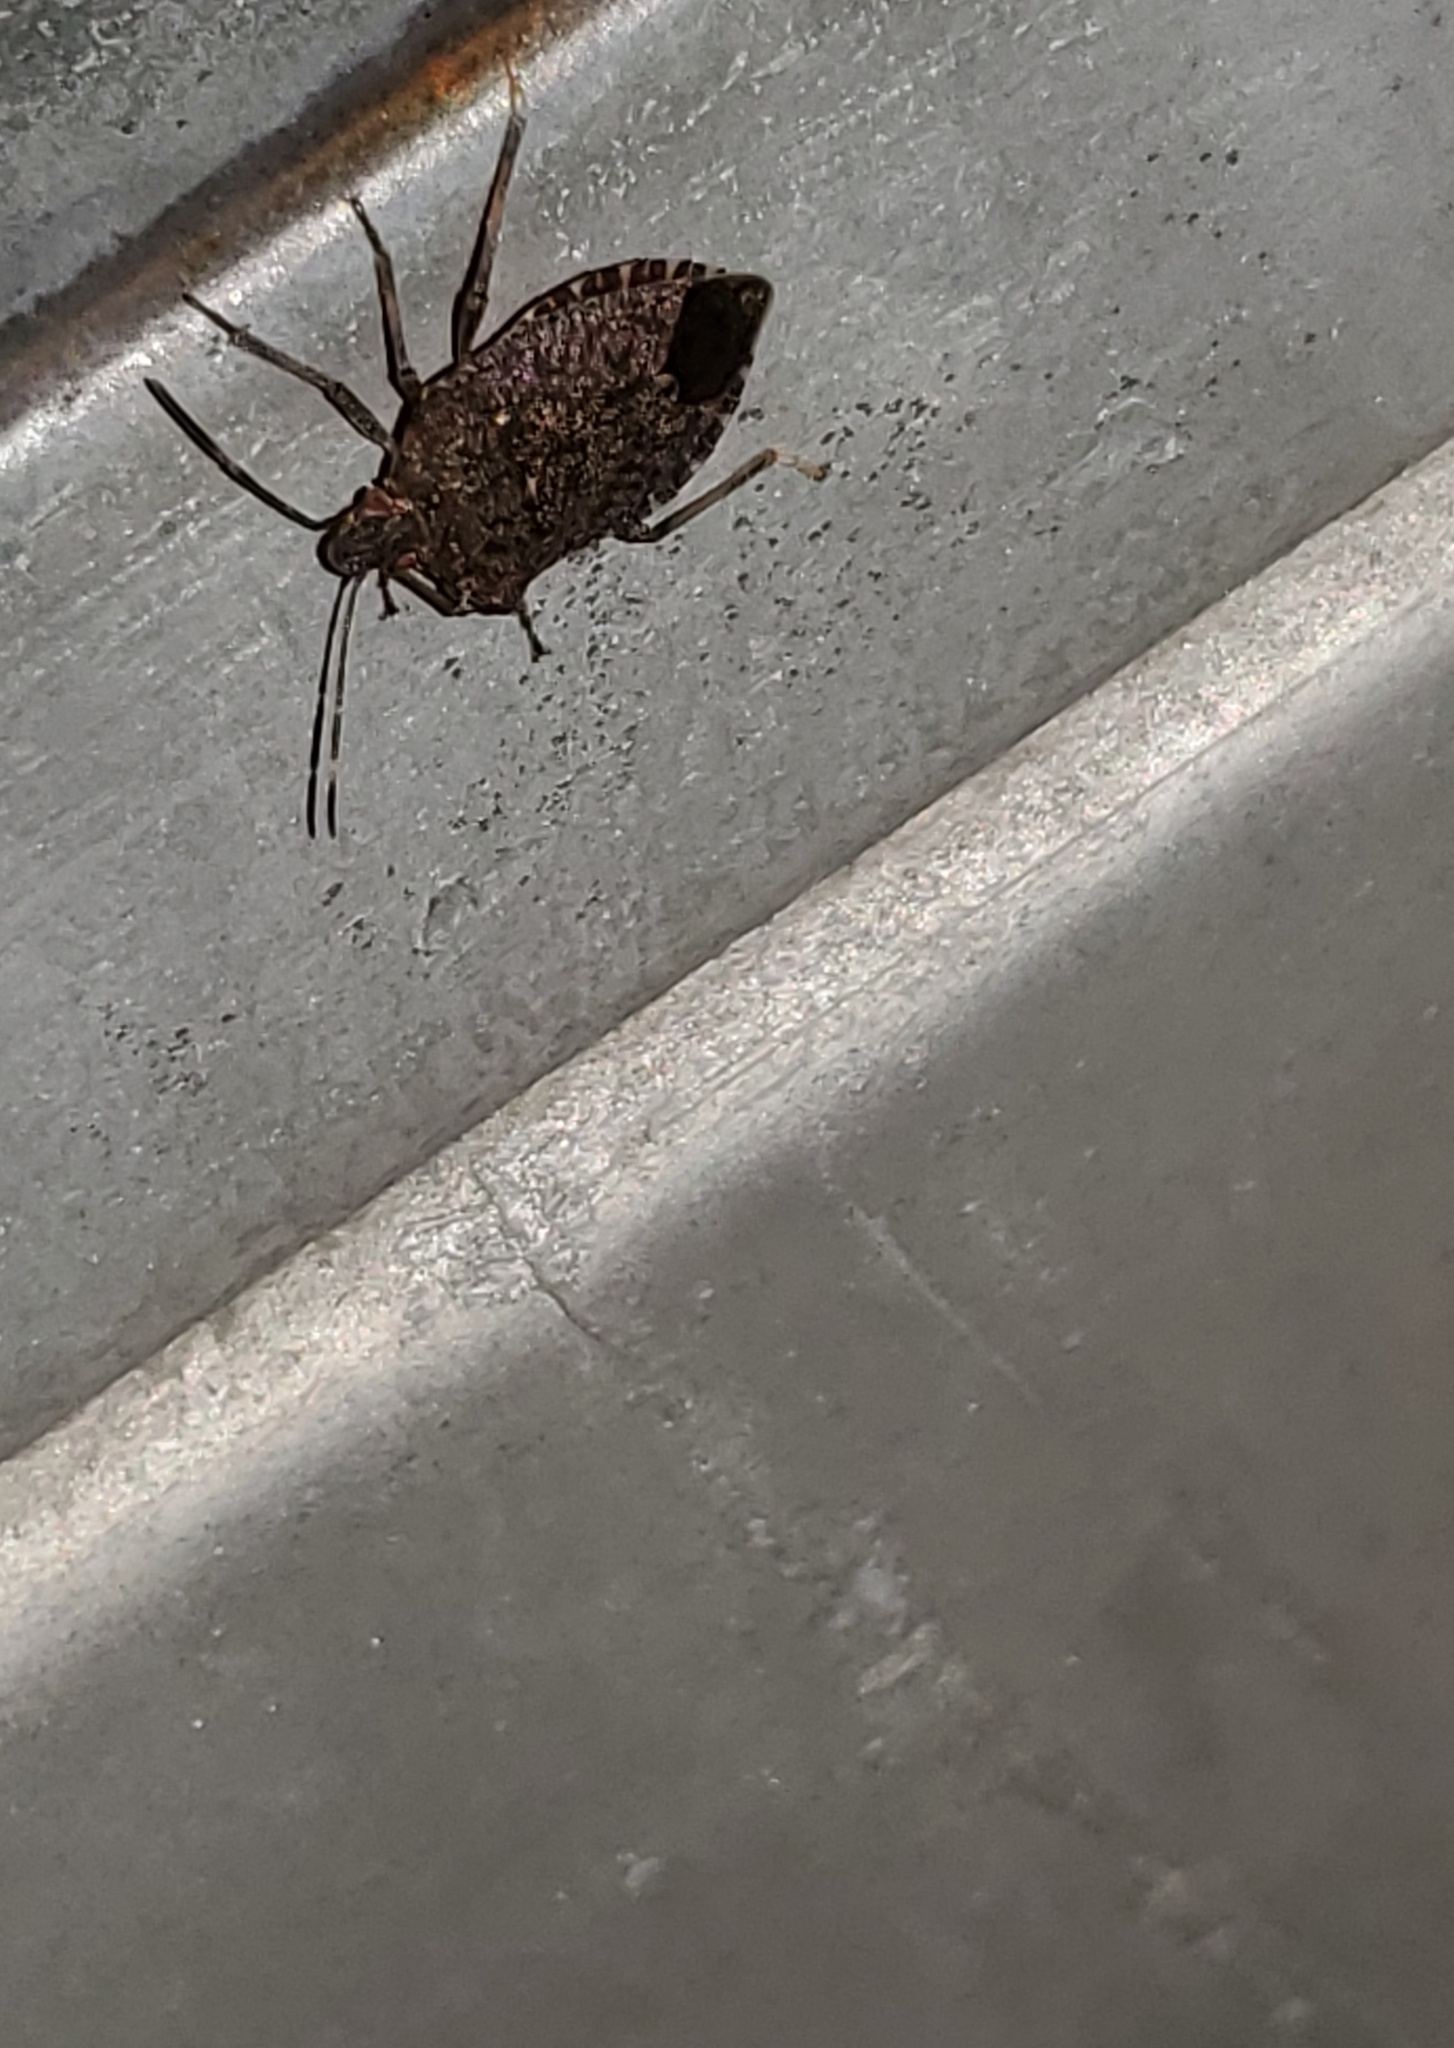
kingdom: Animalia
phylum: Arthropoda
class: Insecta
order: Hemiptera
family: Pentatomidae
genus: Halyomorpha
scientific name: Halyomorpha halys
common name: Brown marmorated stink bug
